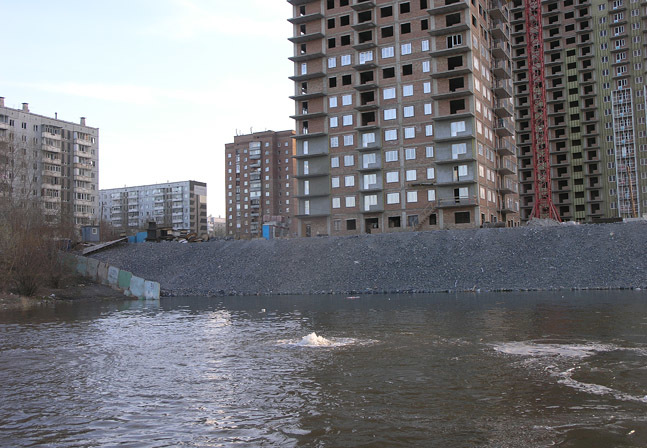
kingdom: Animalia
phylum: Arthropoda
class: Insecta
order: Odonata
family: Coenagrionidae
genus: Enallagma
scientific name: Enallagma cyathigerum
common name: Common blue damselfly
